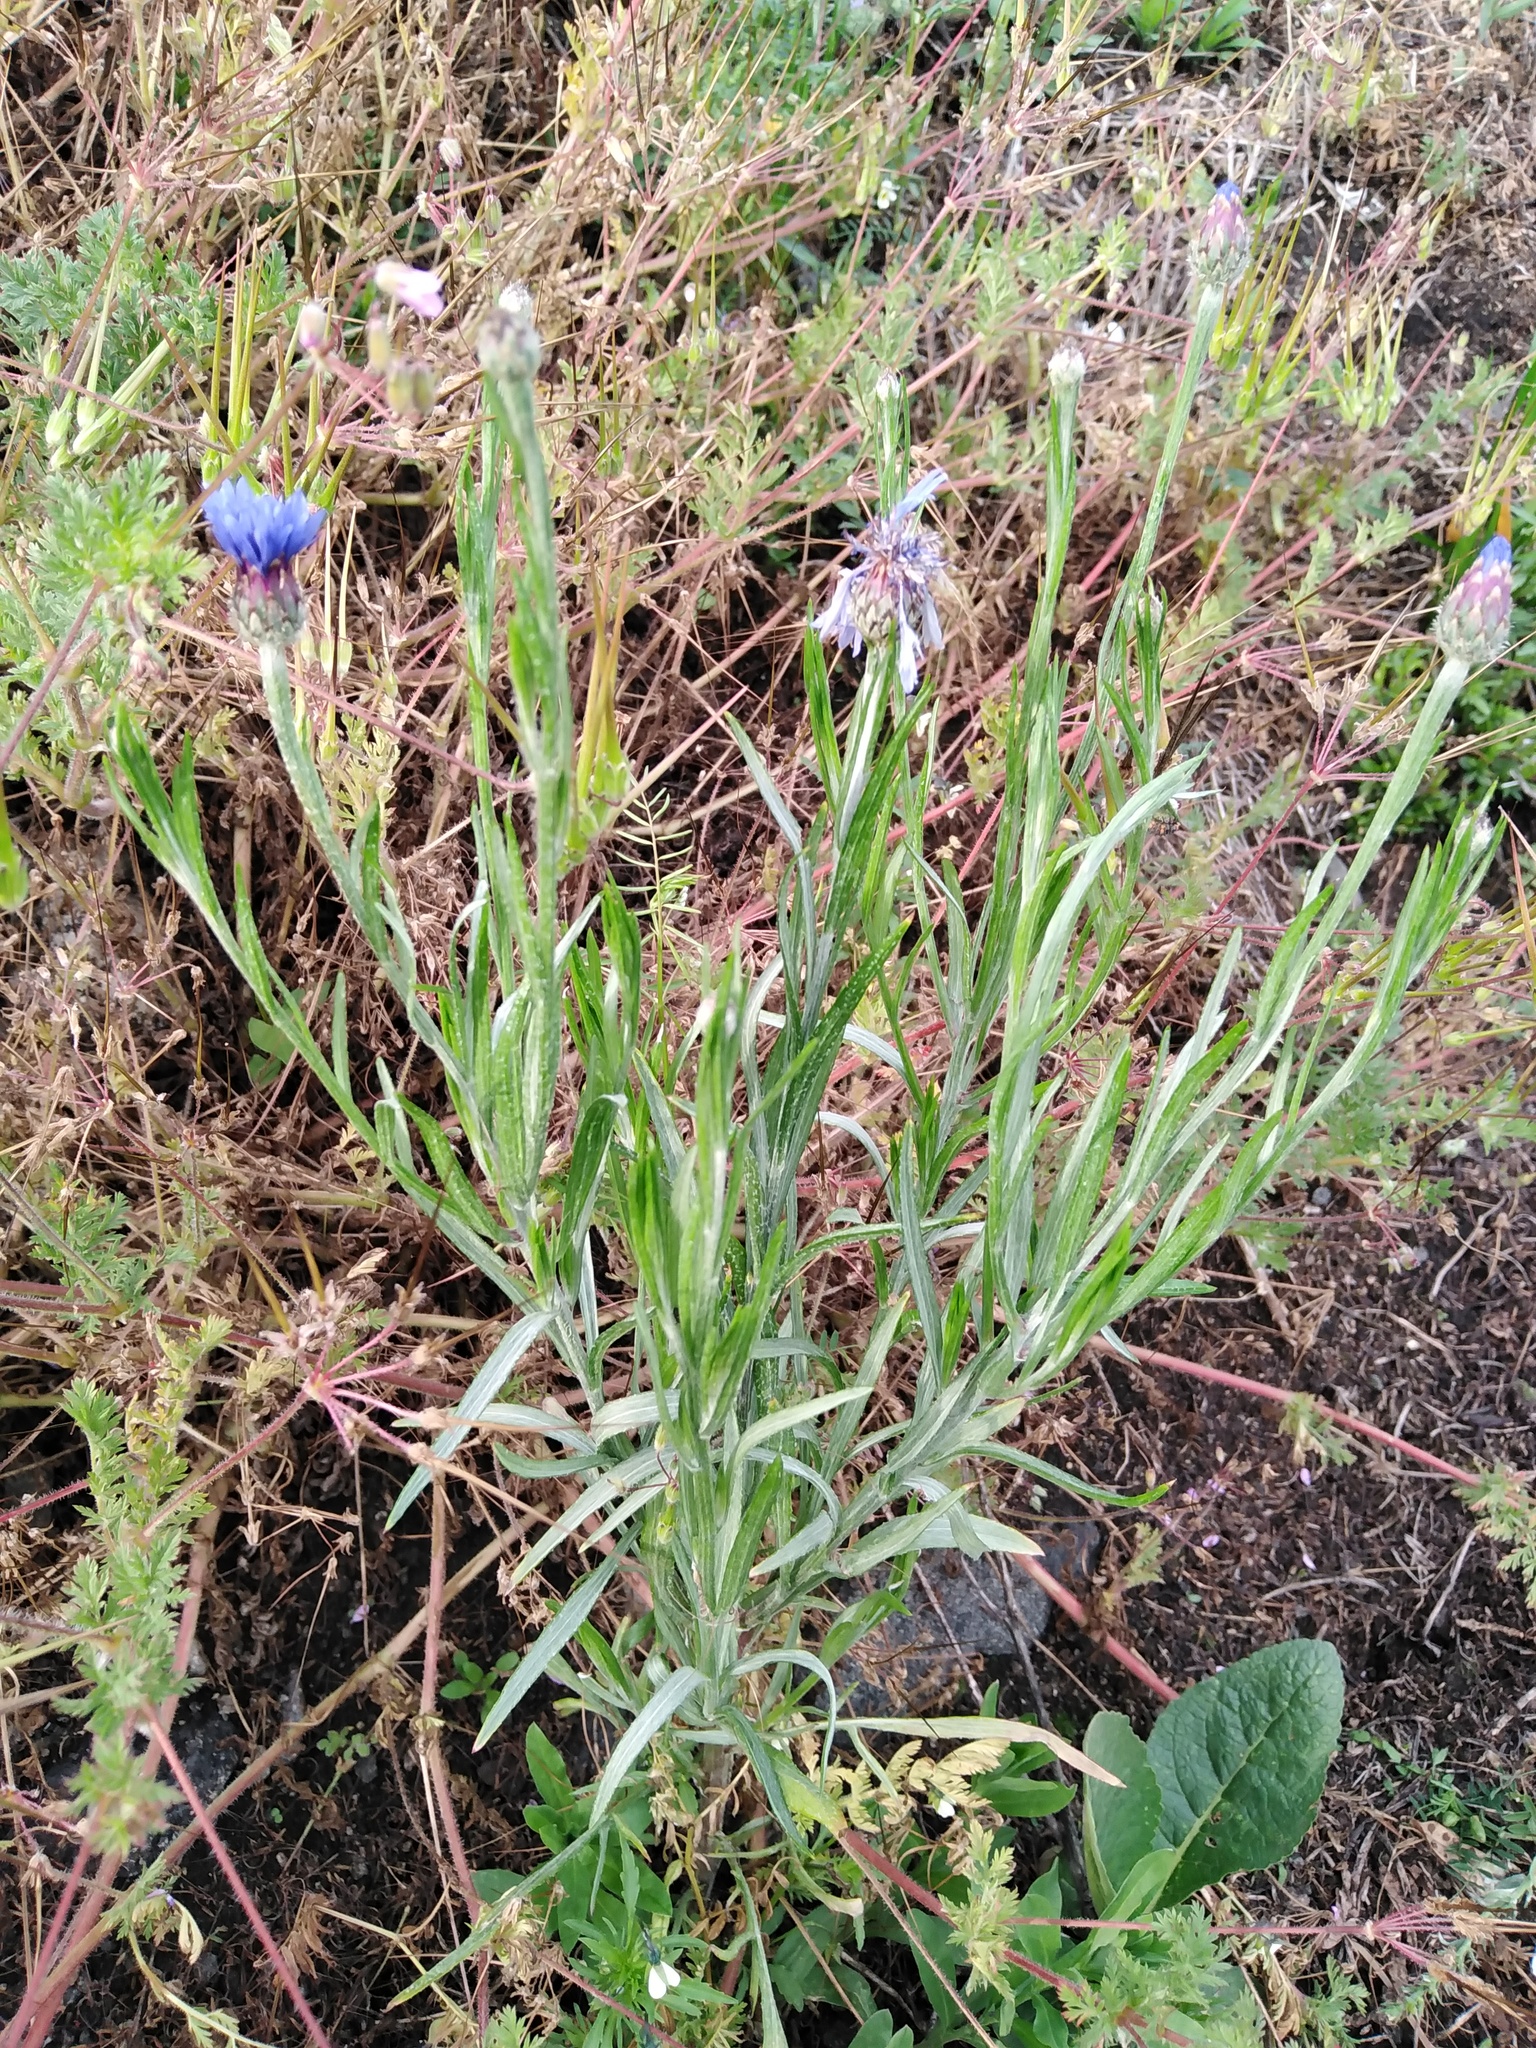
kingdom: Plantae
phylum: Tracheophyta
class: Magnoliopsida
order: Asterales
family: Asteraceae
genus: Centaurea
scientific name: Centaurea cyanus
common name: Cornflower
